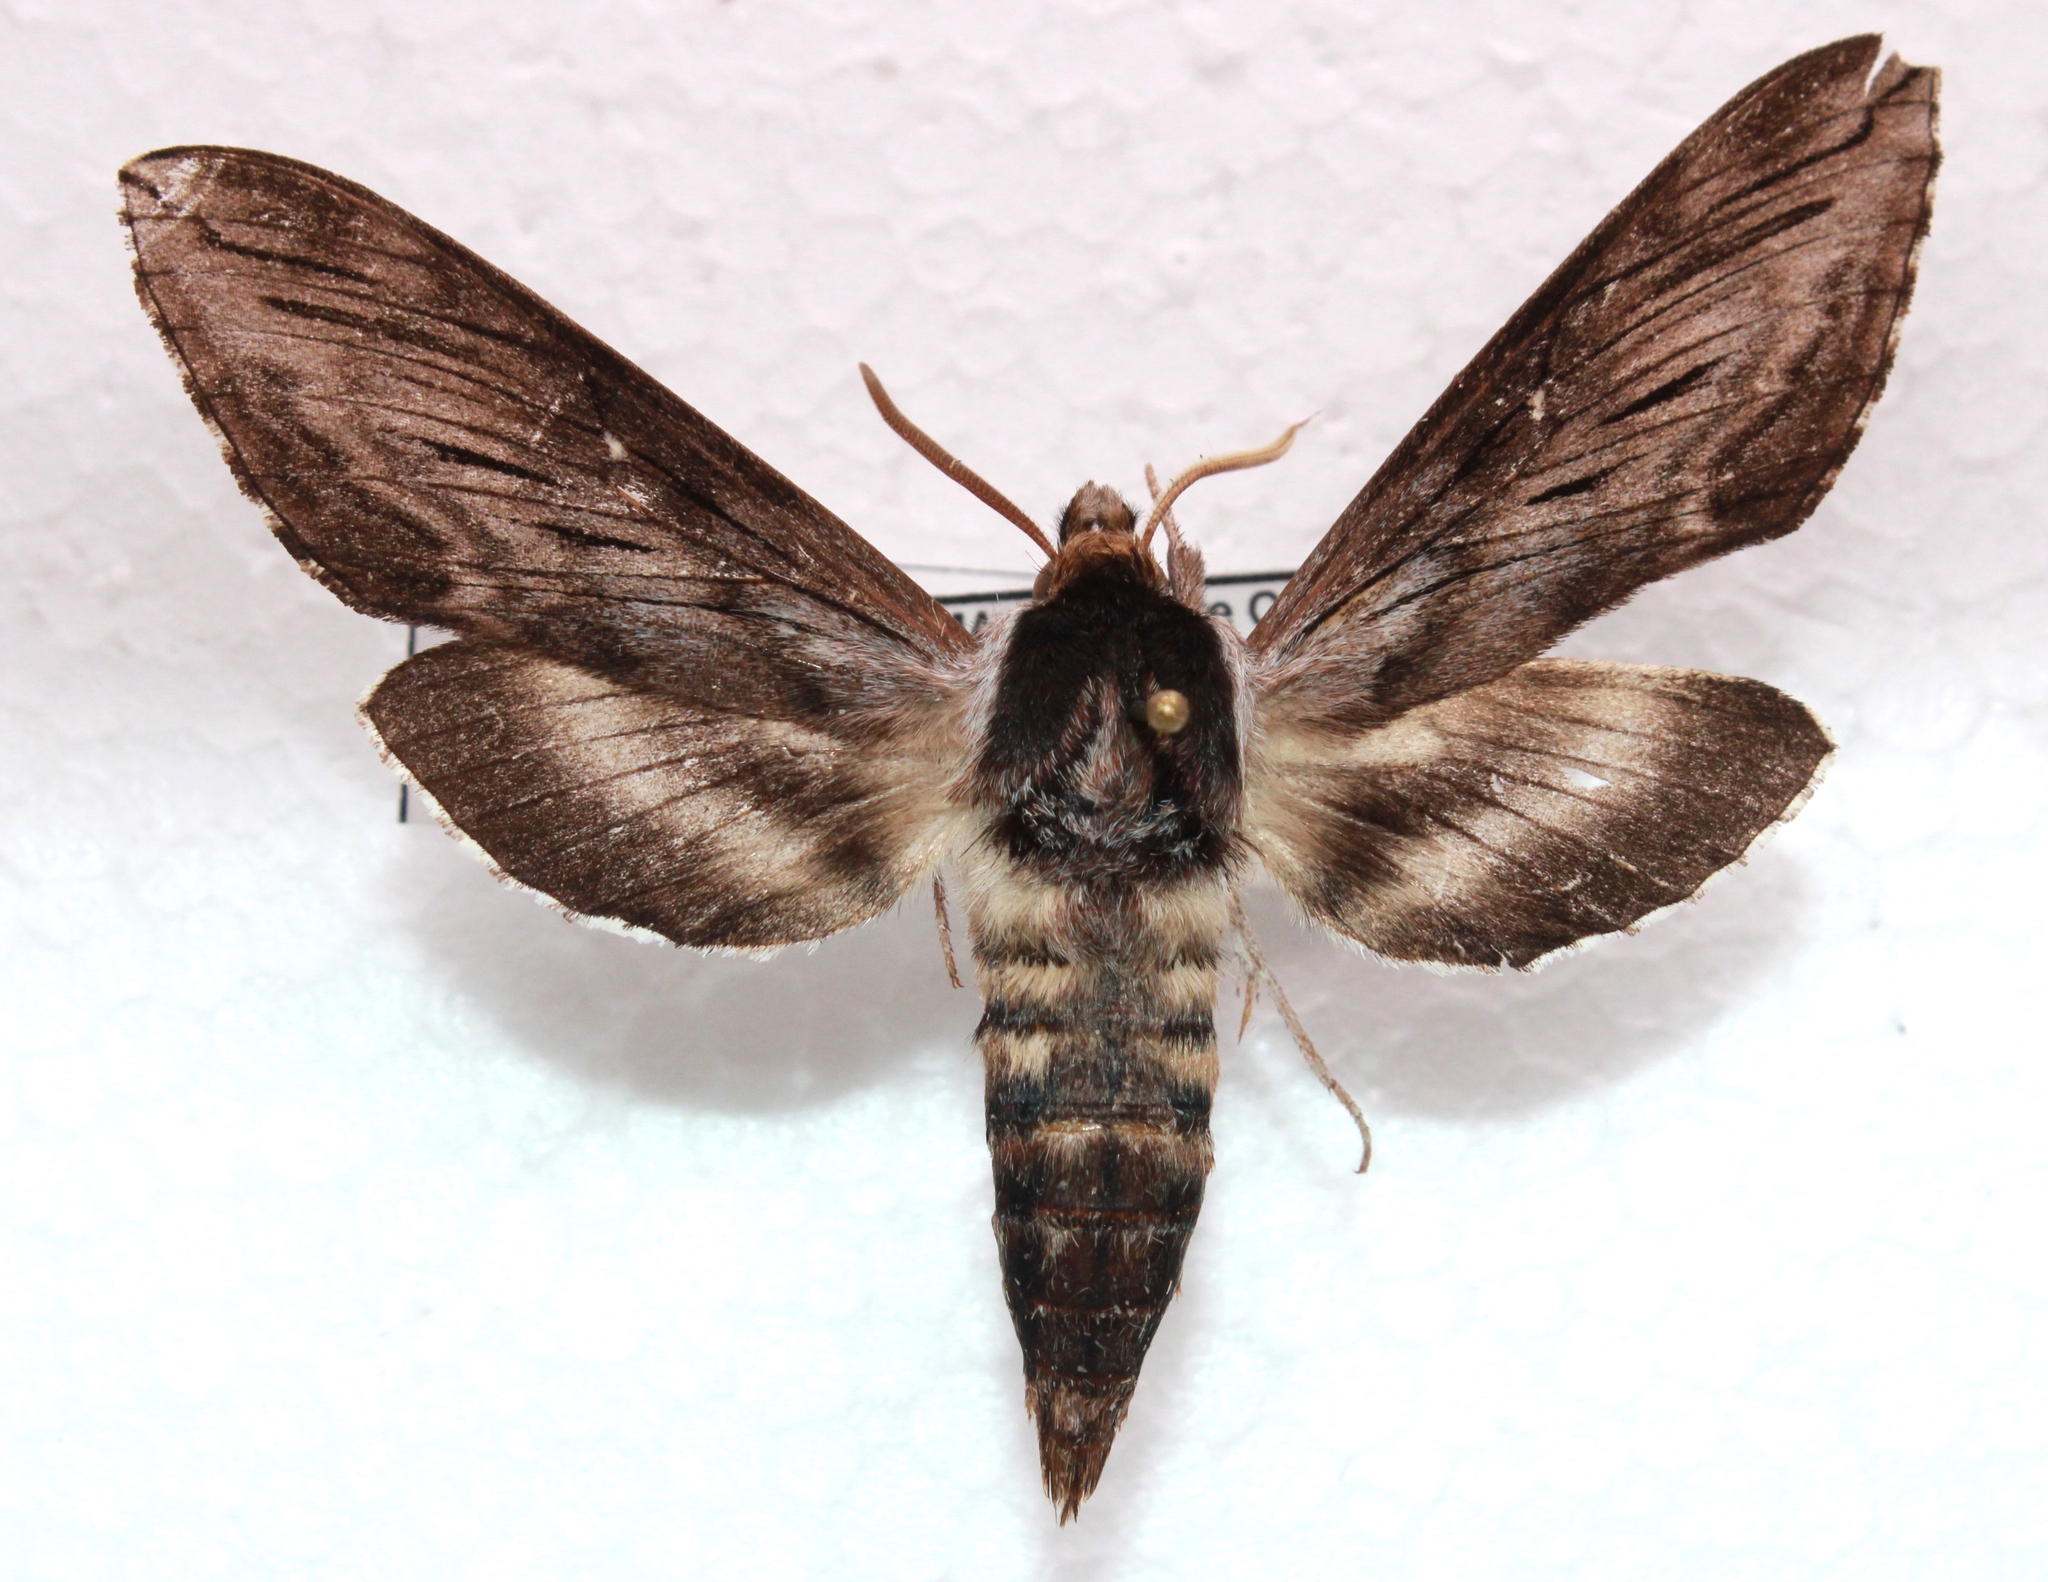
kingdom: Animalia
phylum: Arthropoda
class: Insecta
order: Lepidoptera
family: Sphingidae
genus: Sphinx
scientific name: Sphinx poecila
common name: Northern apple sphinx
